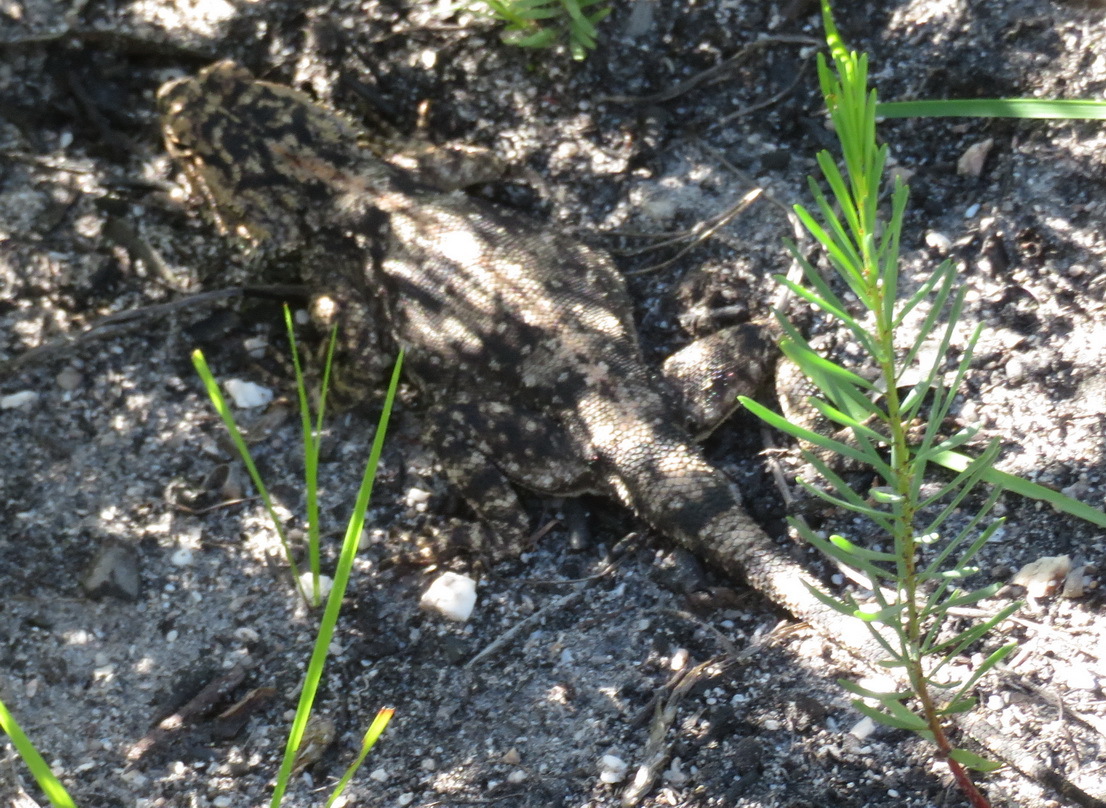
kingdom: Animalia
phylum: Chordata
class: Squamata
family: Agamidae
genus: Agama
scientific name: Agama atra
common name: Southern african rock agama
